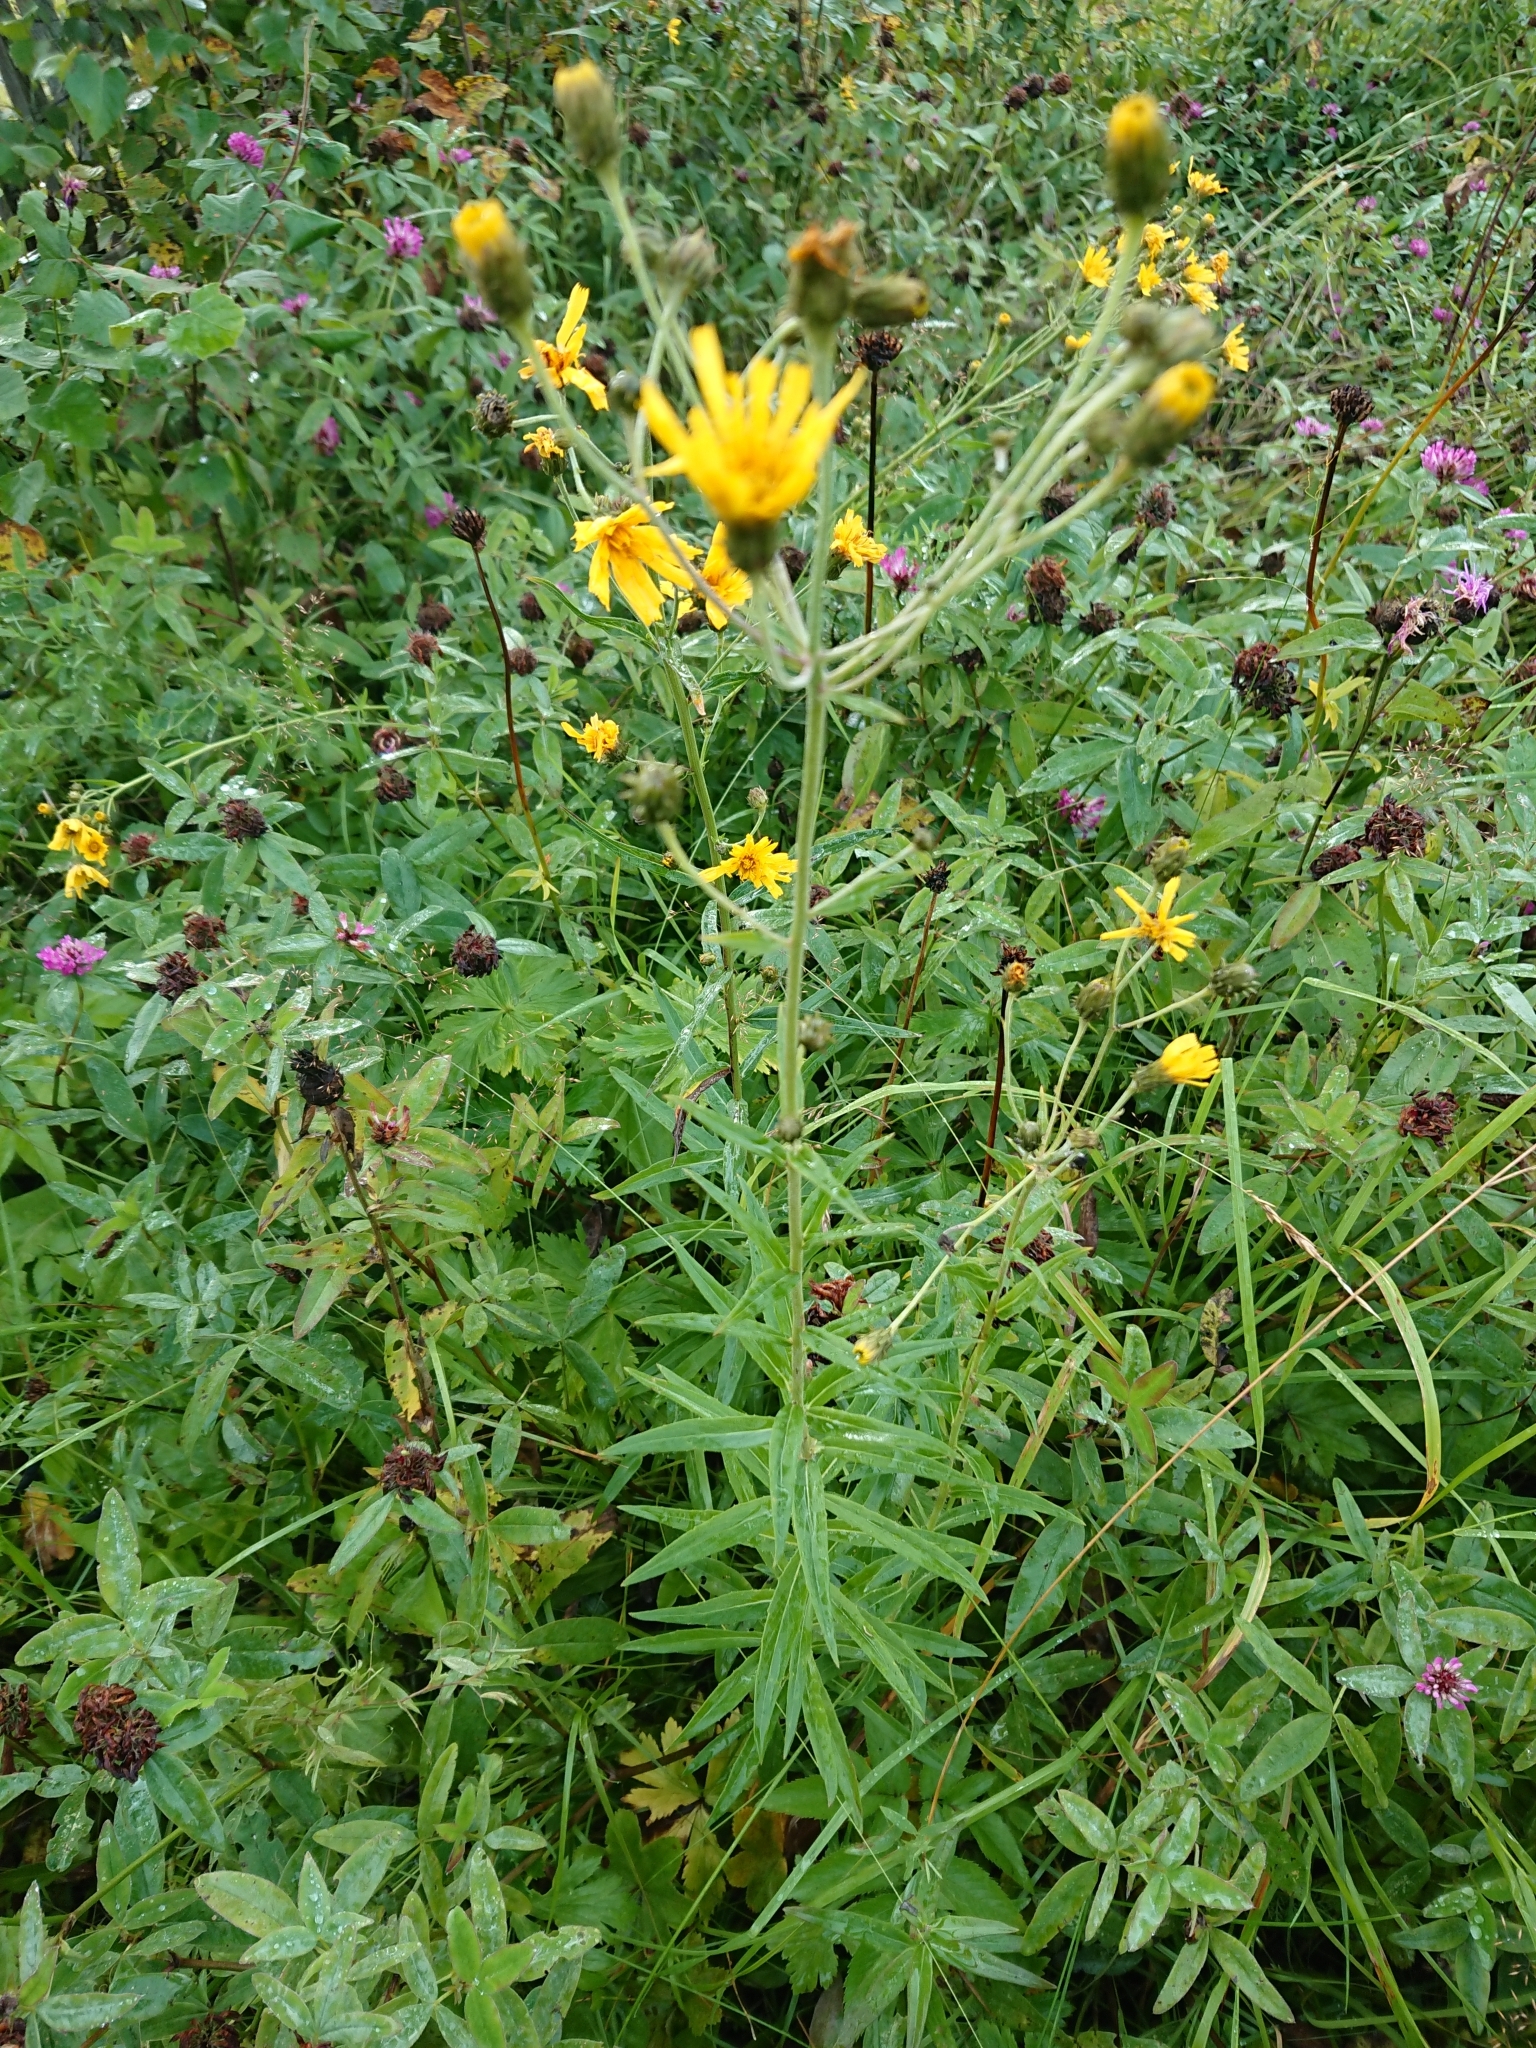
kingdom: Plantae
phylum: Tracheophyta
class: Magnoliopsida
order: Asterales
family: Asteraceae
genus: Hieracium
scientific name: Hieracium umbellatum
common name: Northern hawkweed
